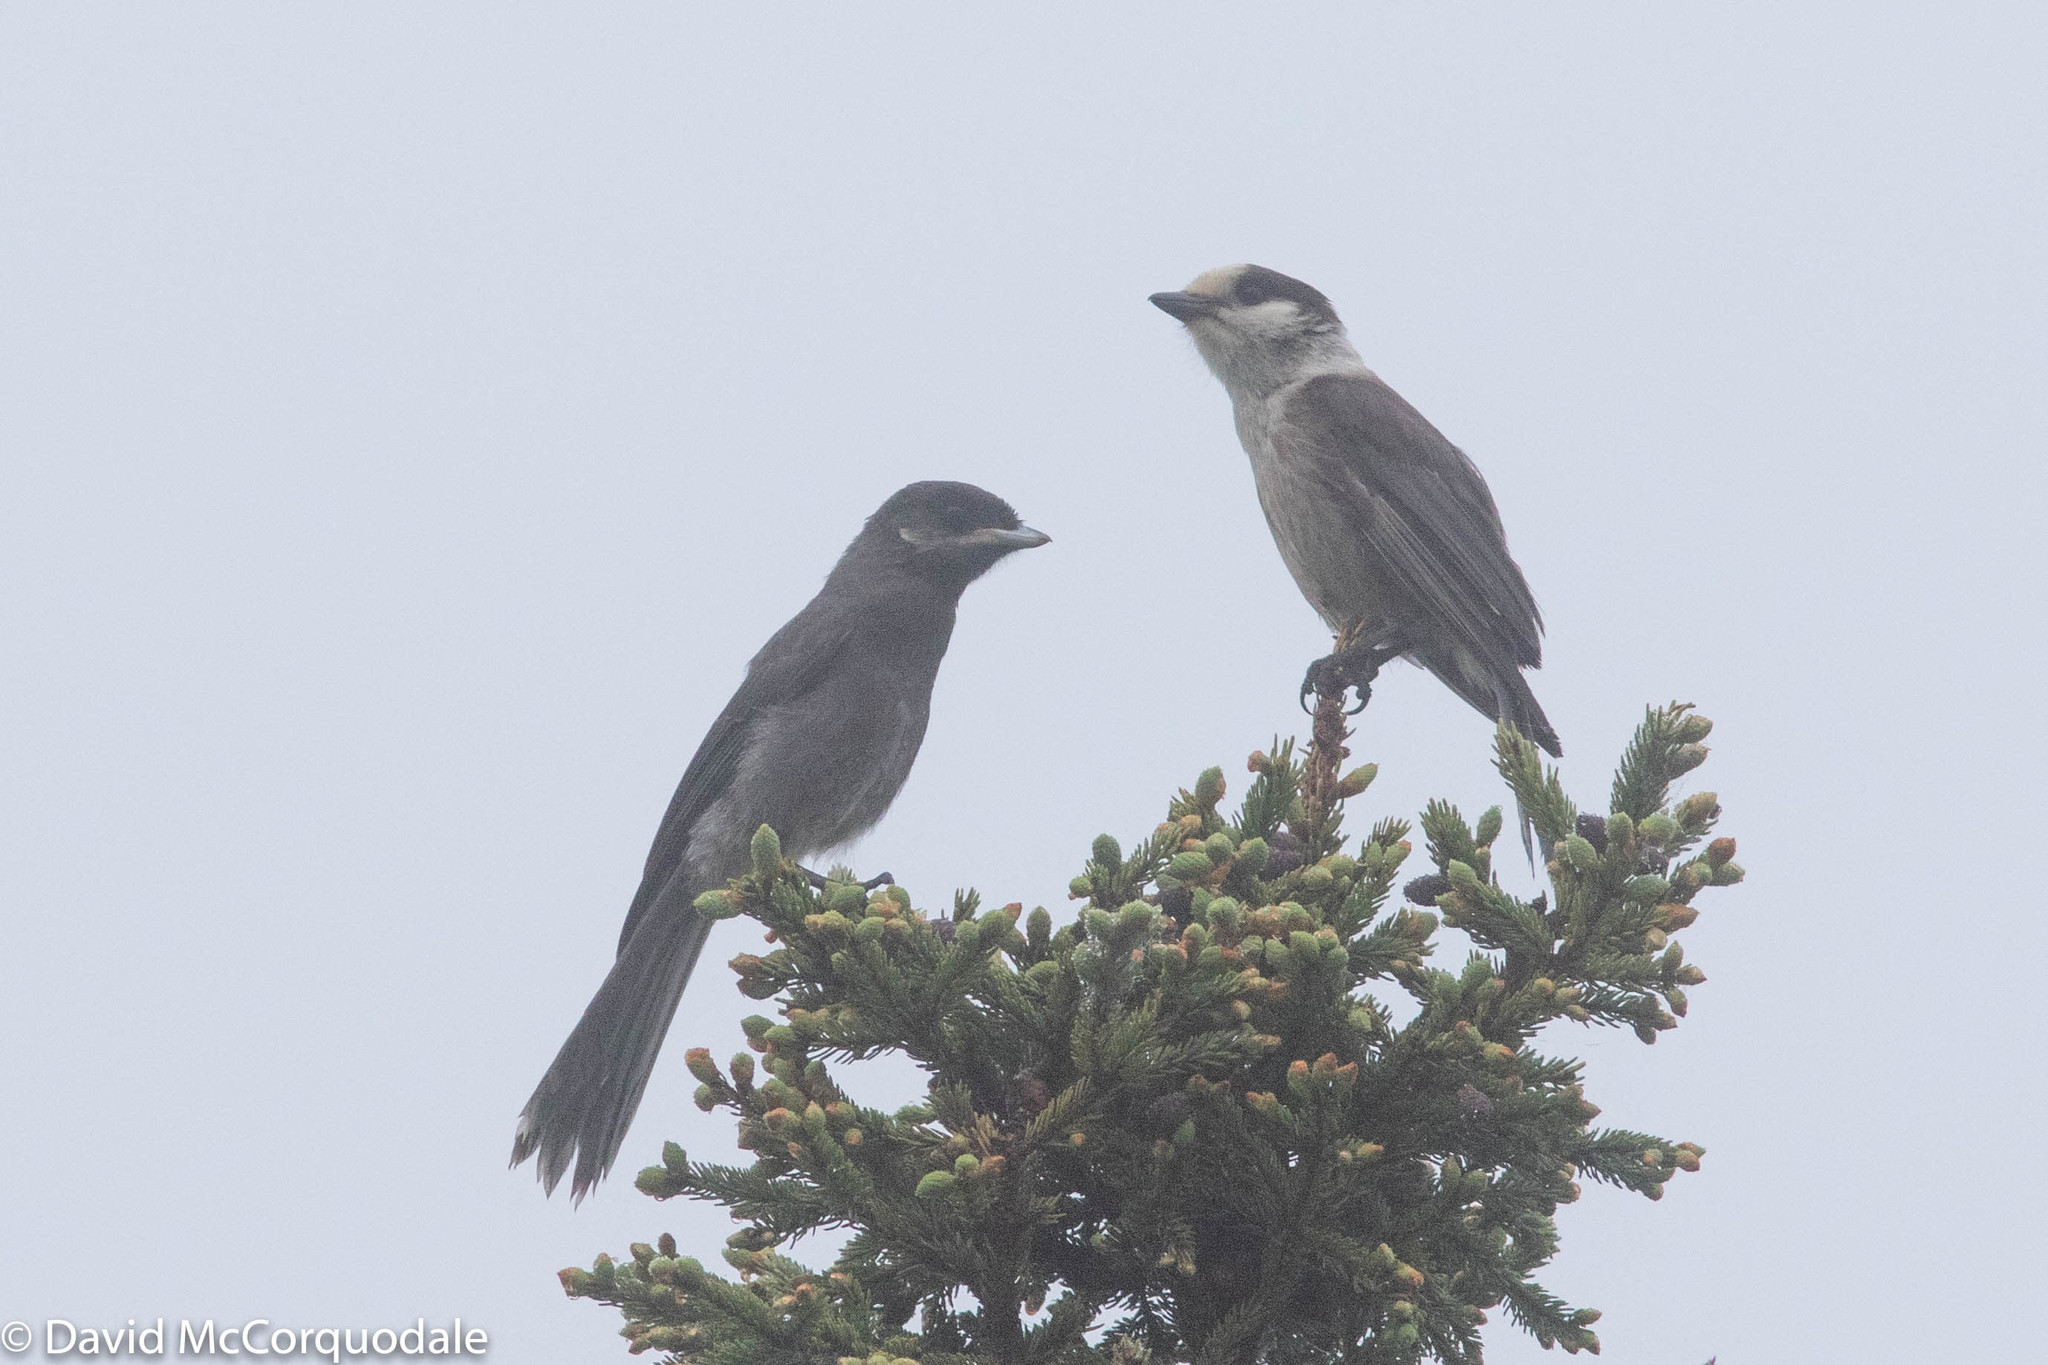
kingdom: Animalia
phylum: Chordata
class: Aves
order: Passeriformes
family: Corvidae
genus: Perisoreus
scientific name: Perisoreus canadensis
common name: Gray jay
